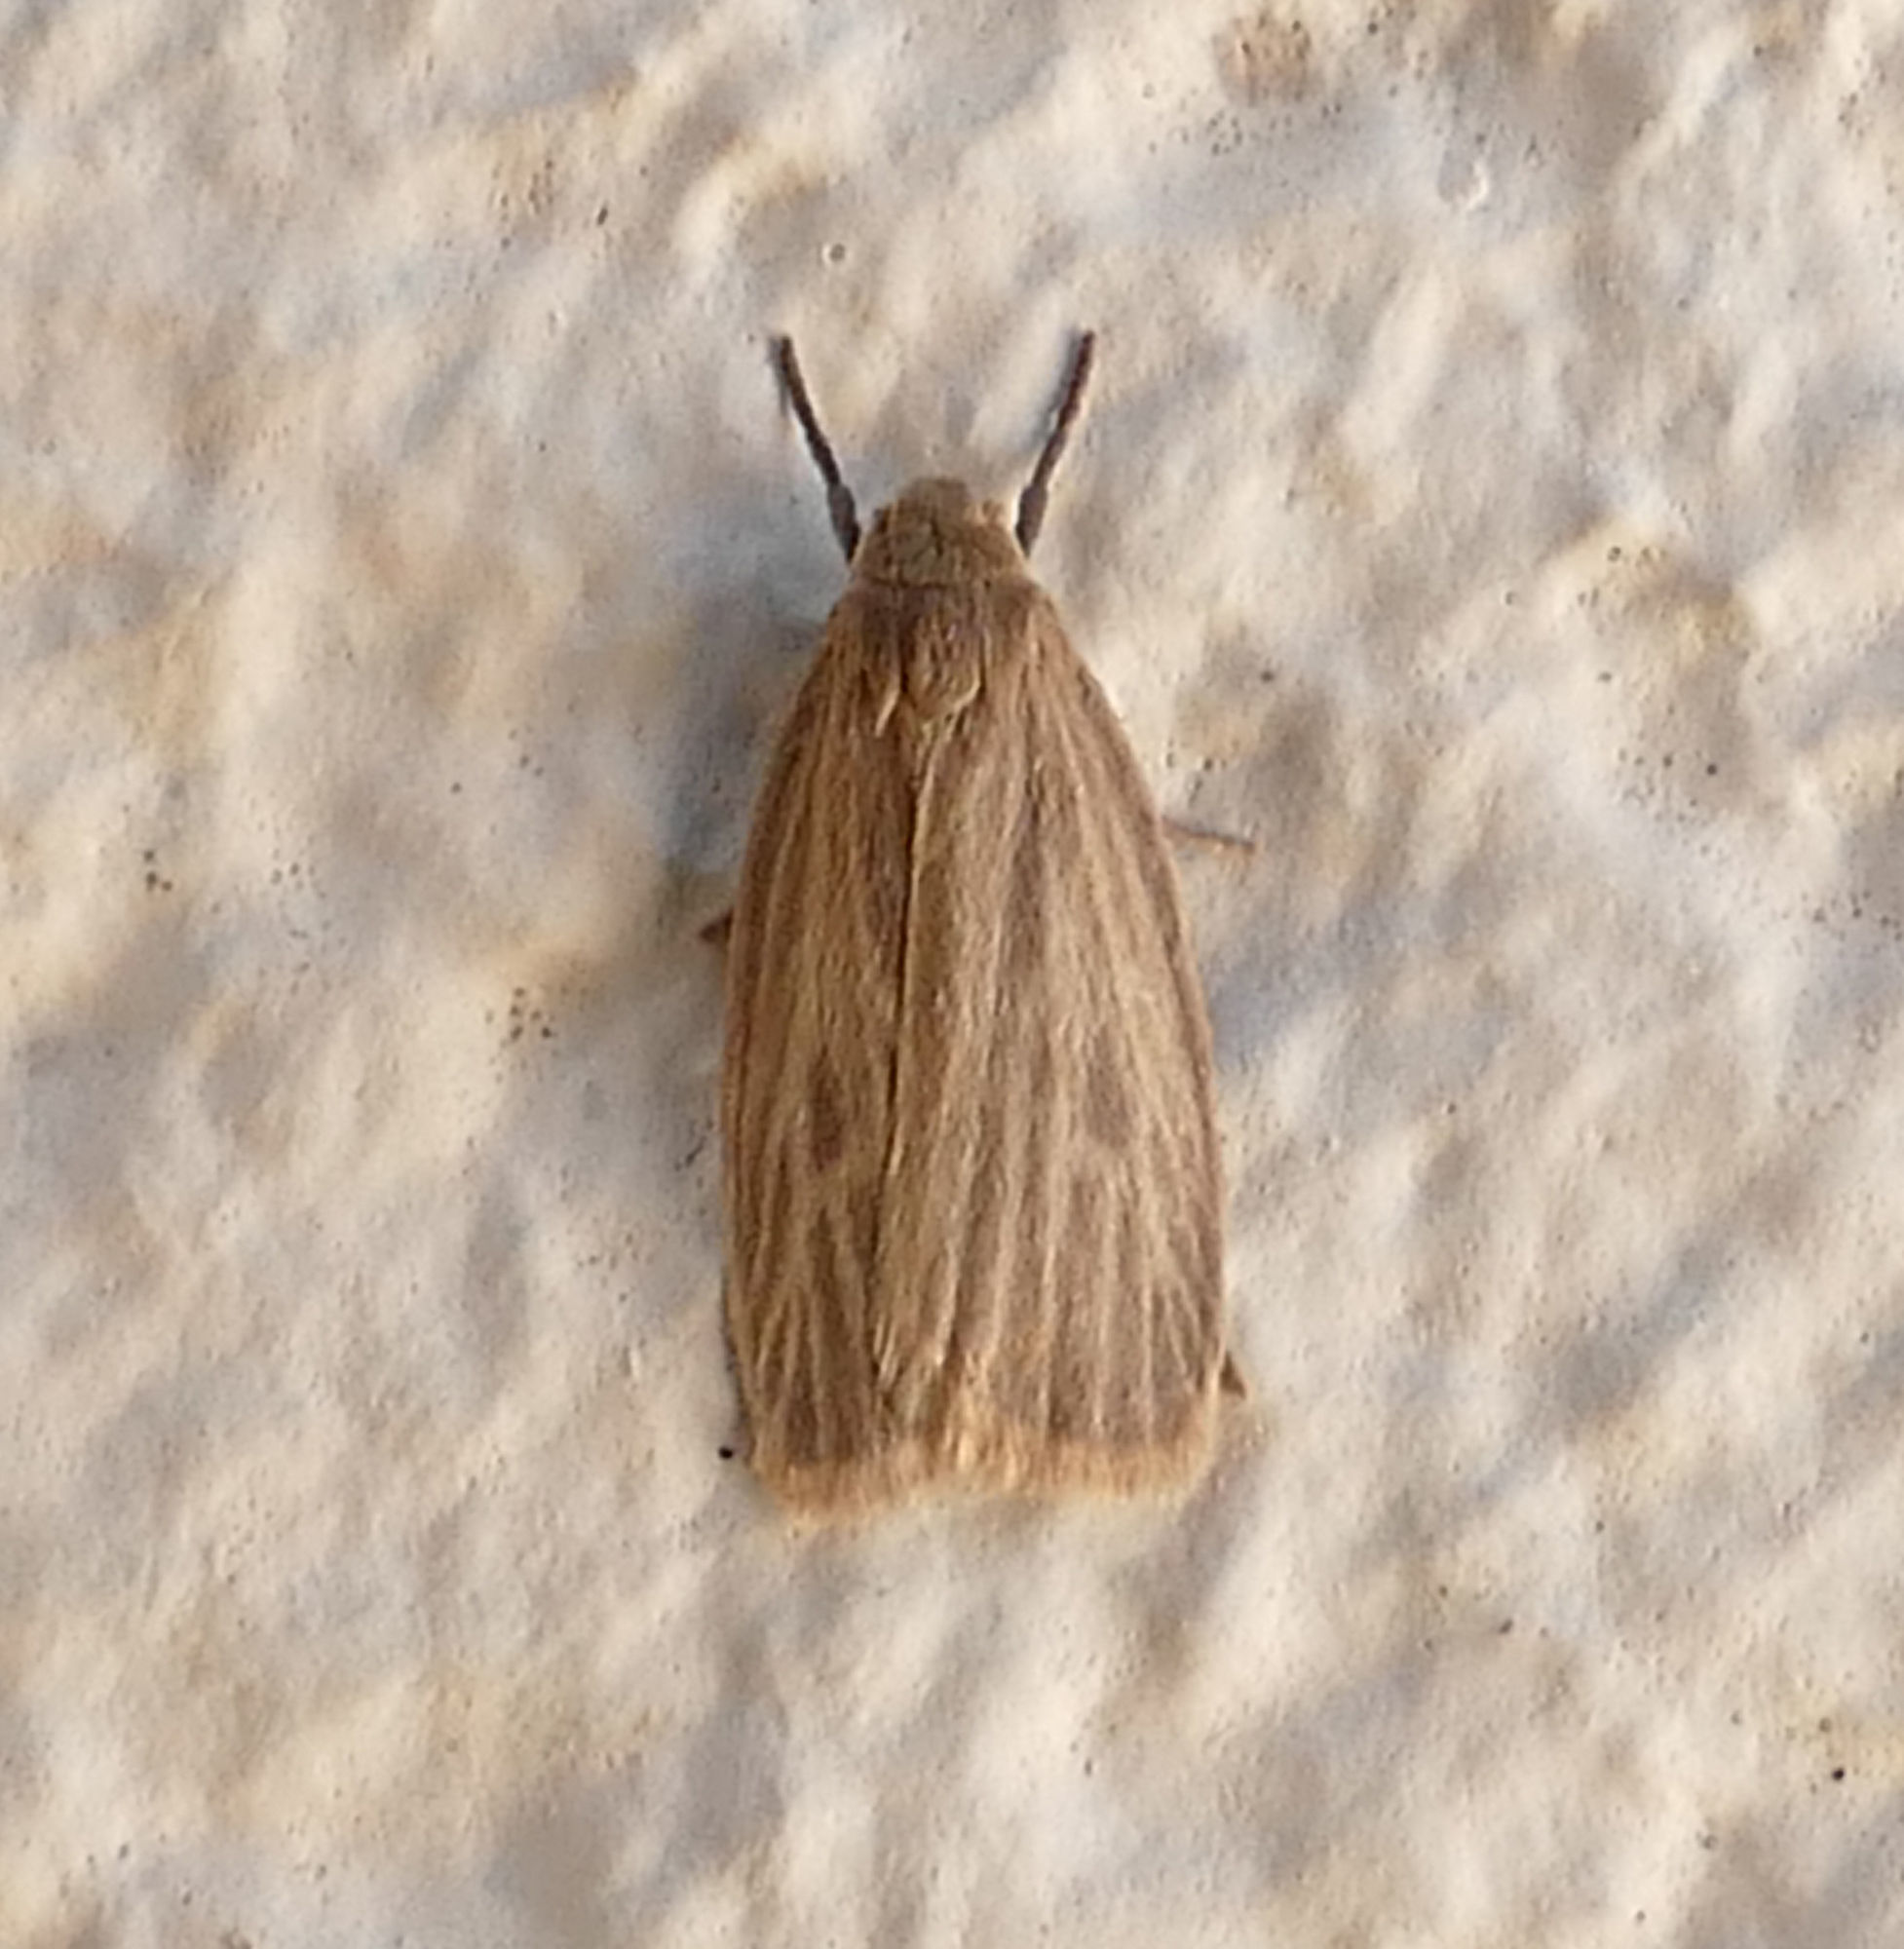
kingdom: Animalia
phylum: Arthropoda
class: Insecta
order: Lepidoptera
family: Erebidae
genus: Crambidia
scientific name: Crambidia pallida
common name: Pale lichen moth
